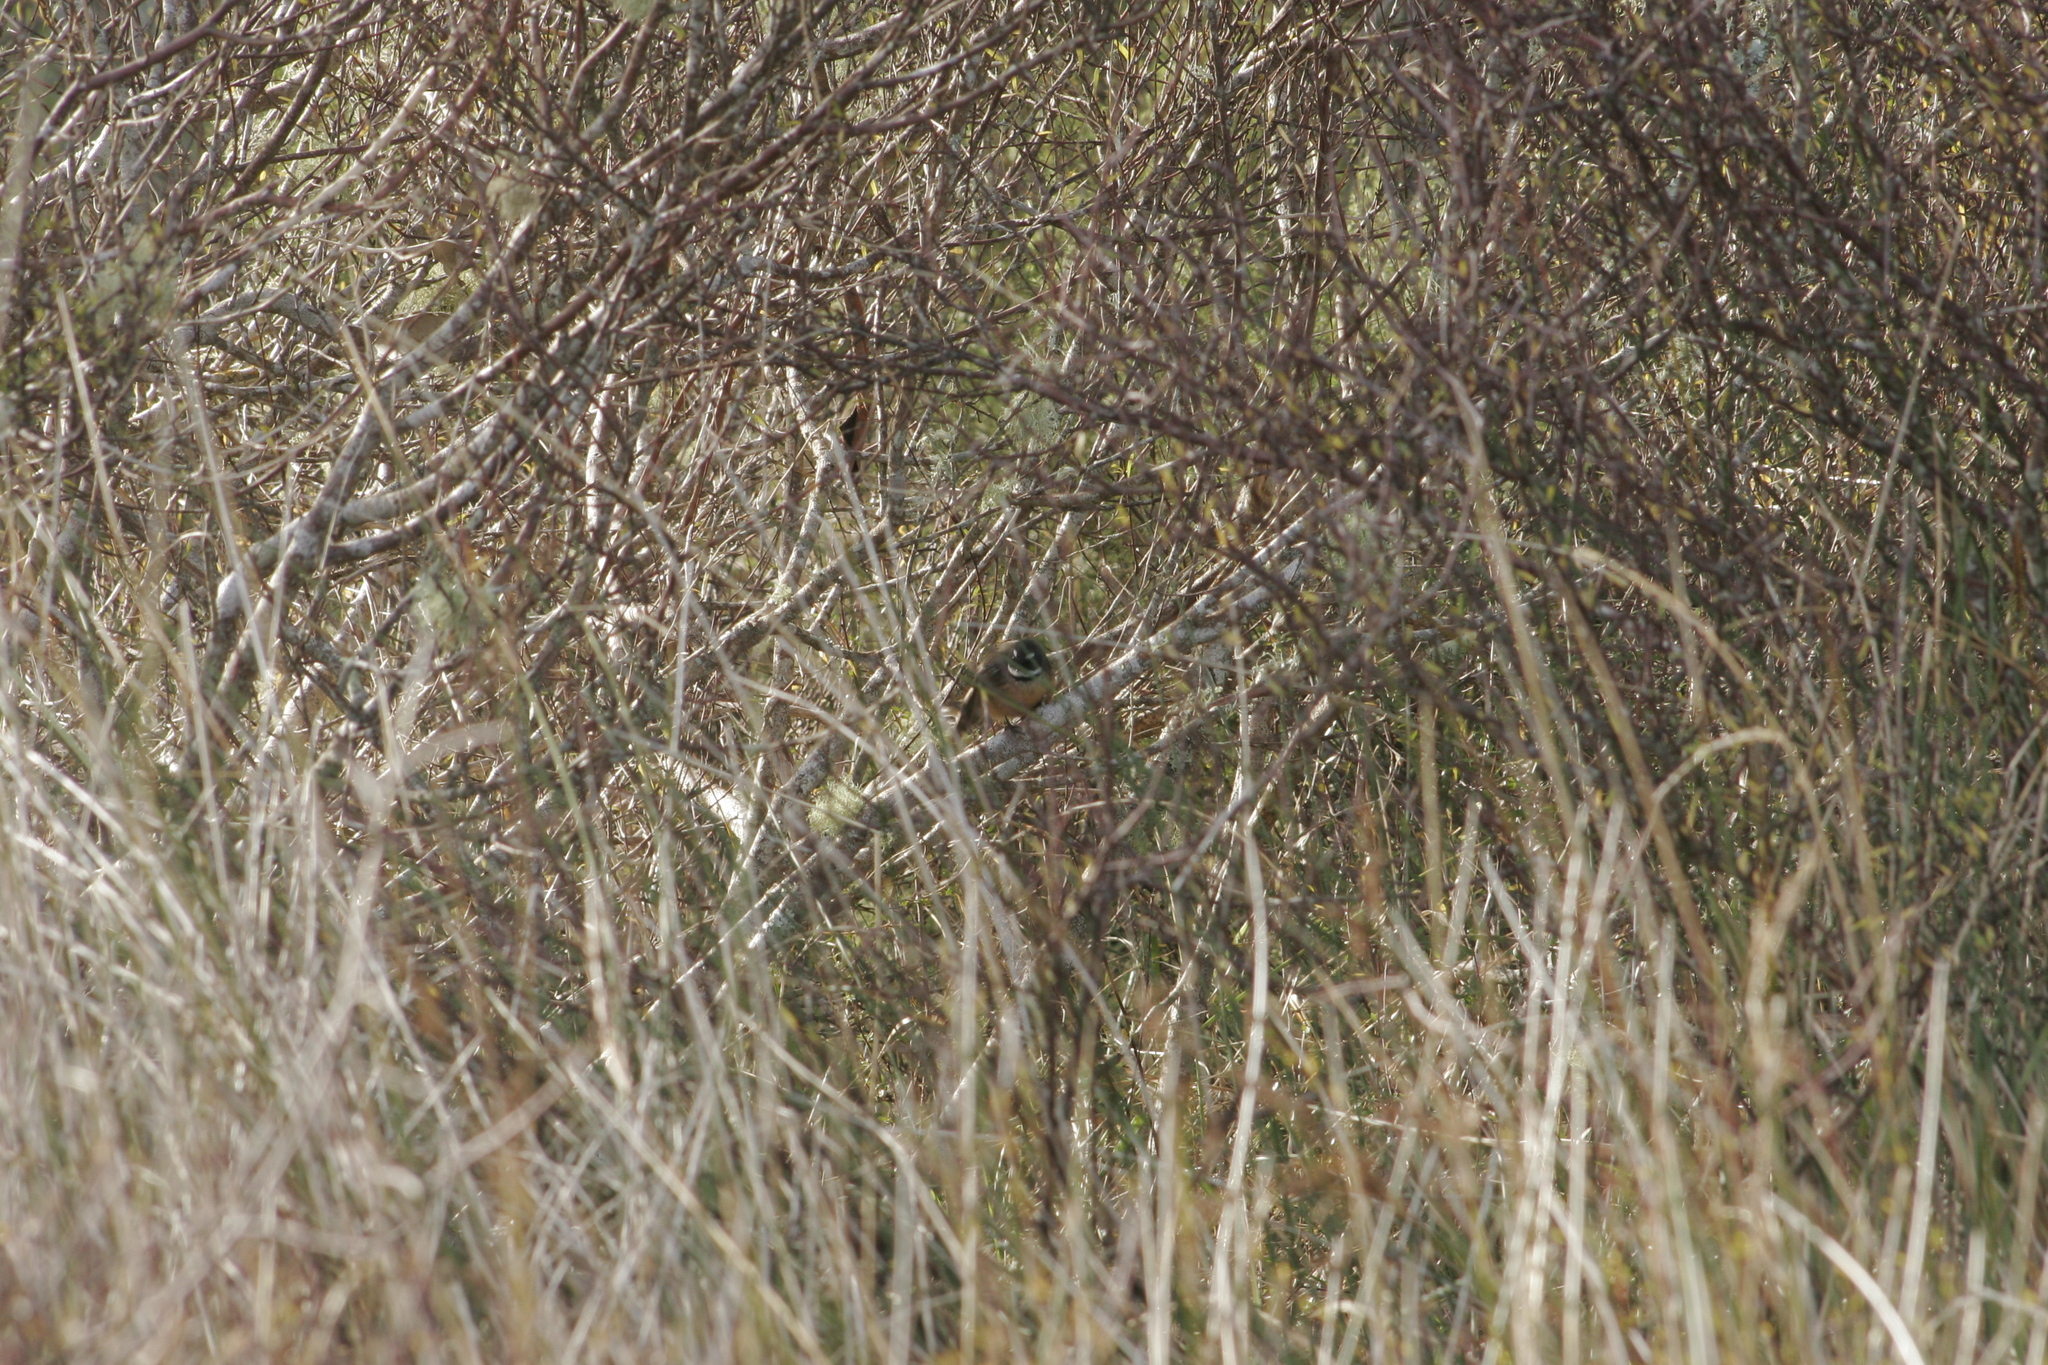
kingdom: Animalia
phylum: Chordata
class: Aves
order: Passeriformes
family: Rhipiduridae
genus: Rhipidura
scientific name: Rhipidura fuliginosa
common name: New zealand fantail
